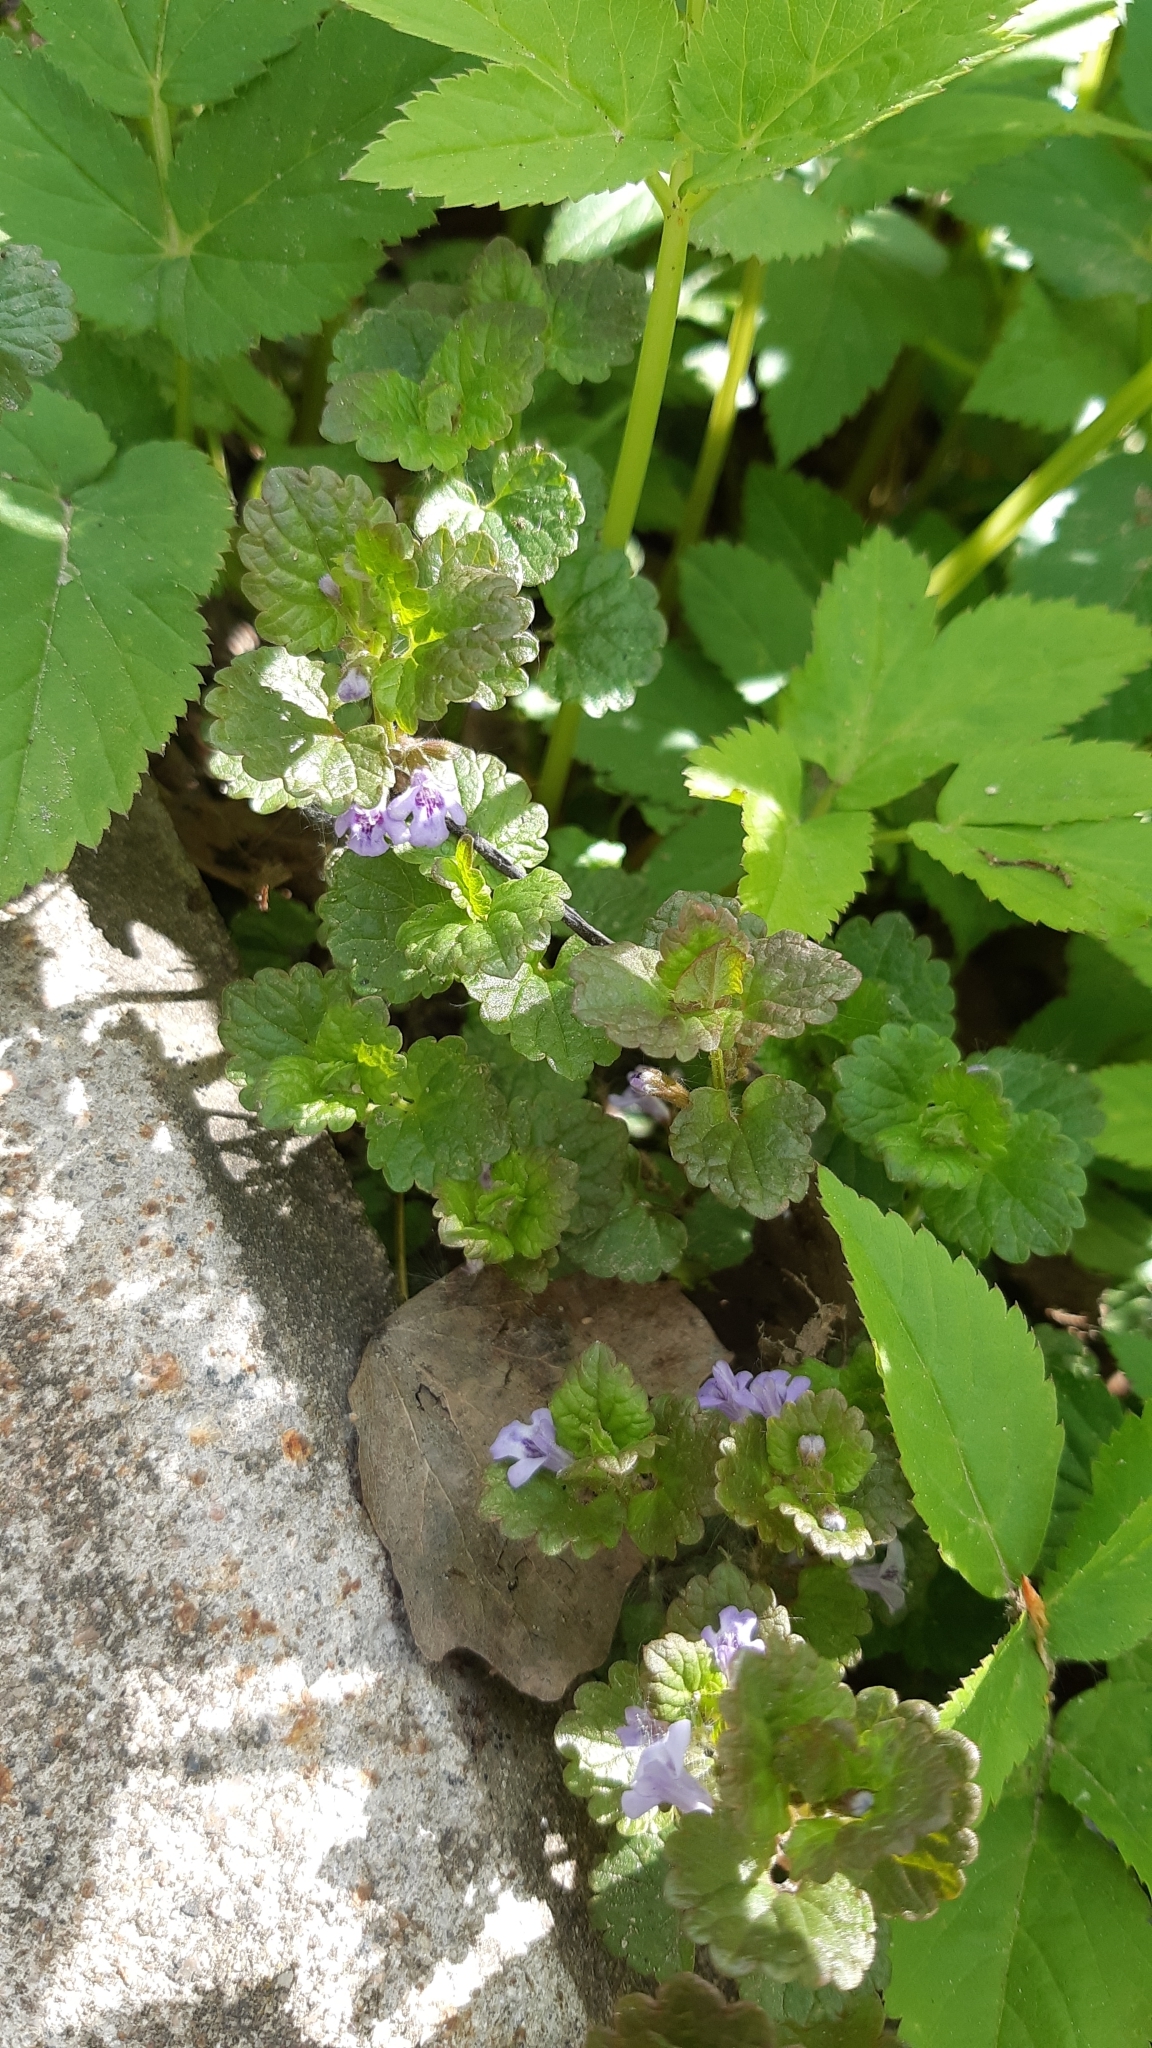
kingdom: Plantae
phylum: Tracheophyta
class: Magnoliopsida
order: Lamiales
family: Lamiaceae
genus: Glechoma
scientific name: Glechoma hederacea
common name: Ground ivy
